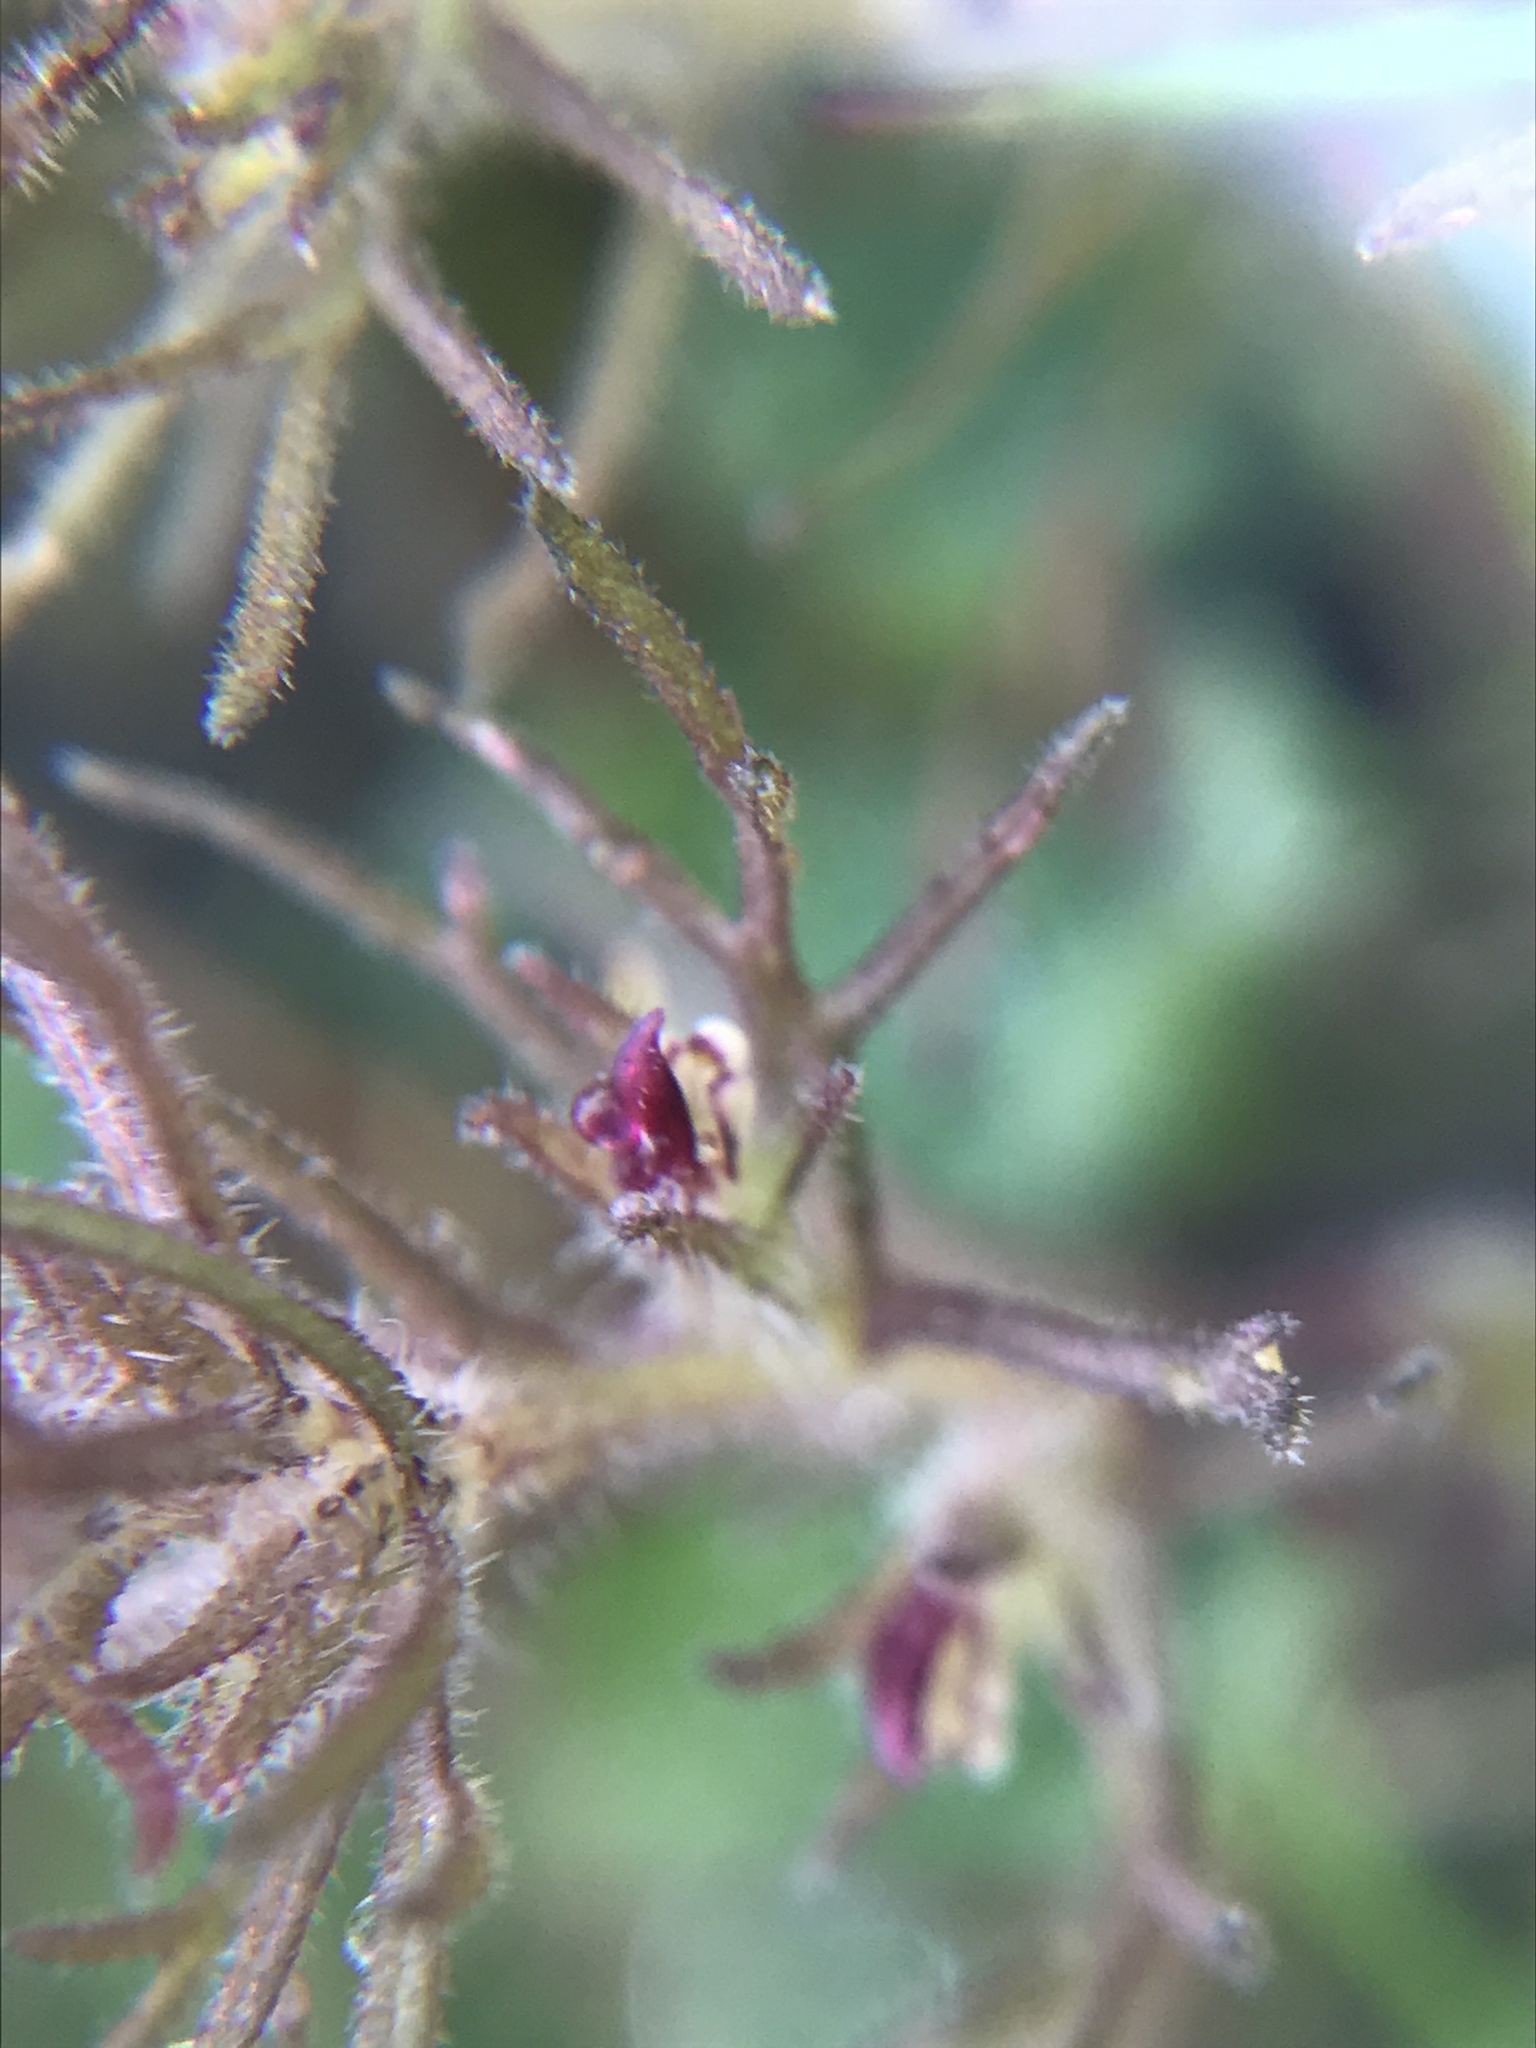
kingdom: Plantae
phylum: Tracheophyta
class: Magnoliopsida
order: Lamiales
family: Orobanchaceae
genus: Triphysaria
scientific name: Triphysaria pusilla
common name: Dwarf false owl-clover
